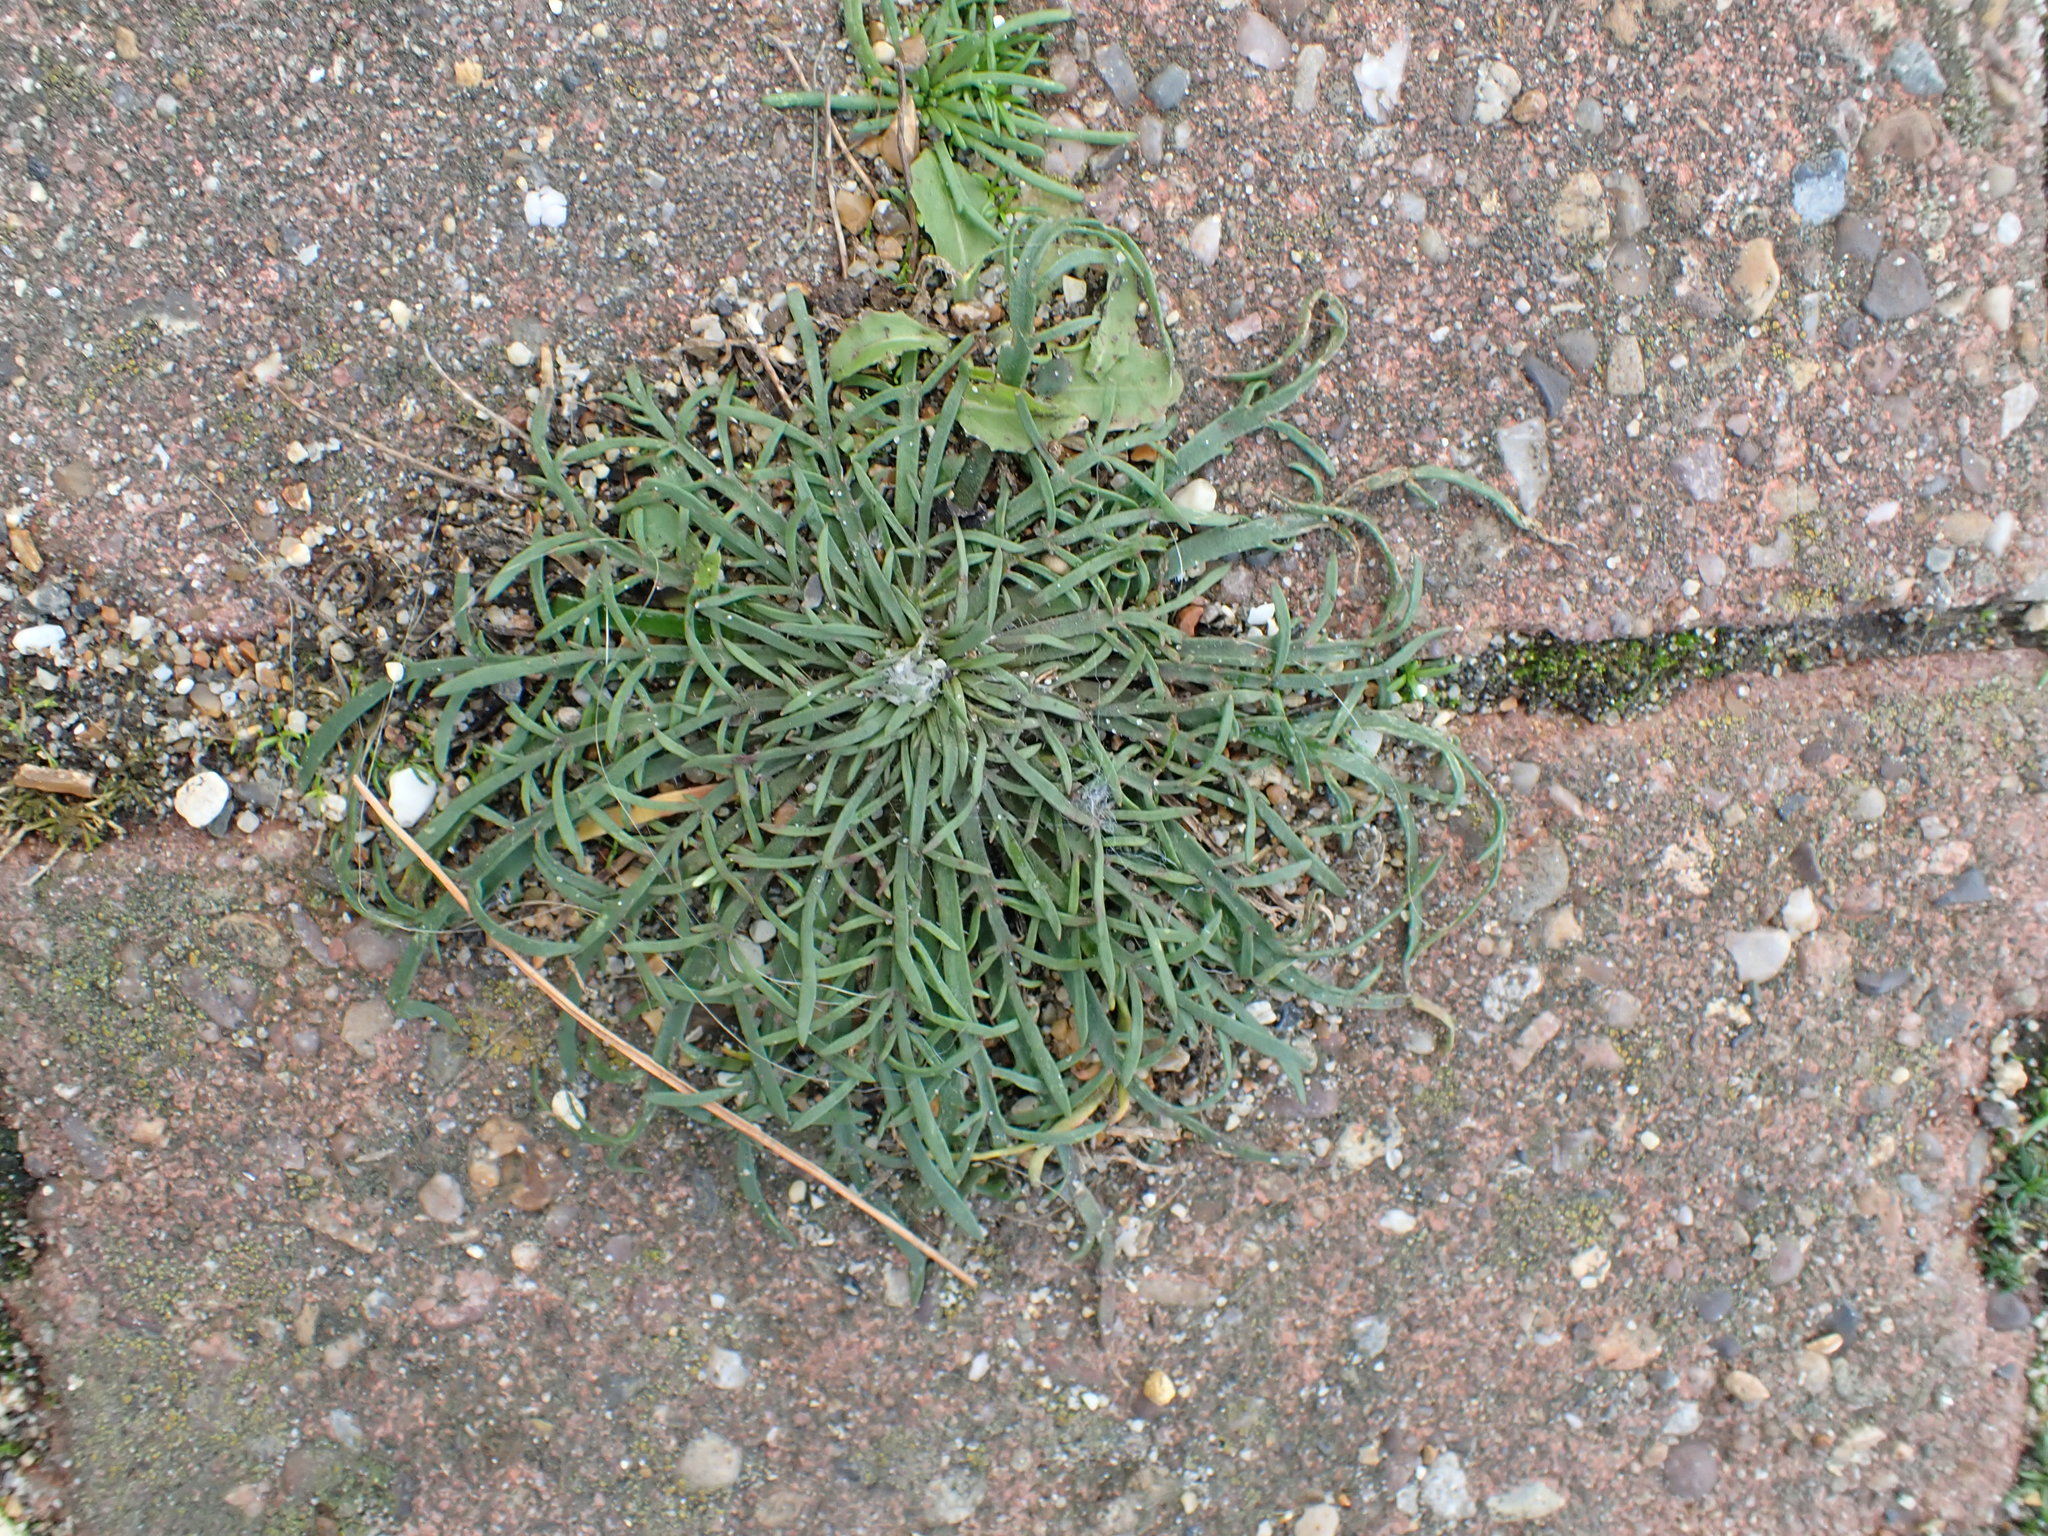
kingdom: Plantae
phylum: Tracheophyta
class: Magnoliopsida
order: Lamiales
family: Plantaginaceae
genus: Plantago
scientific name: Plantago coronopus
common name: Buck's-horn plantain
